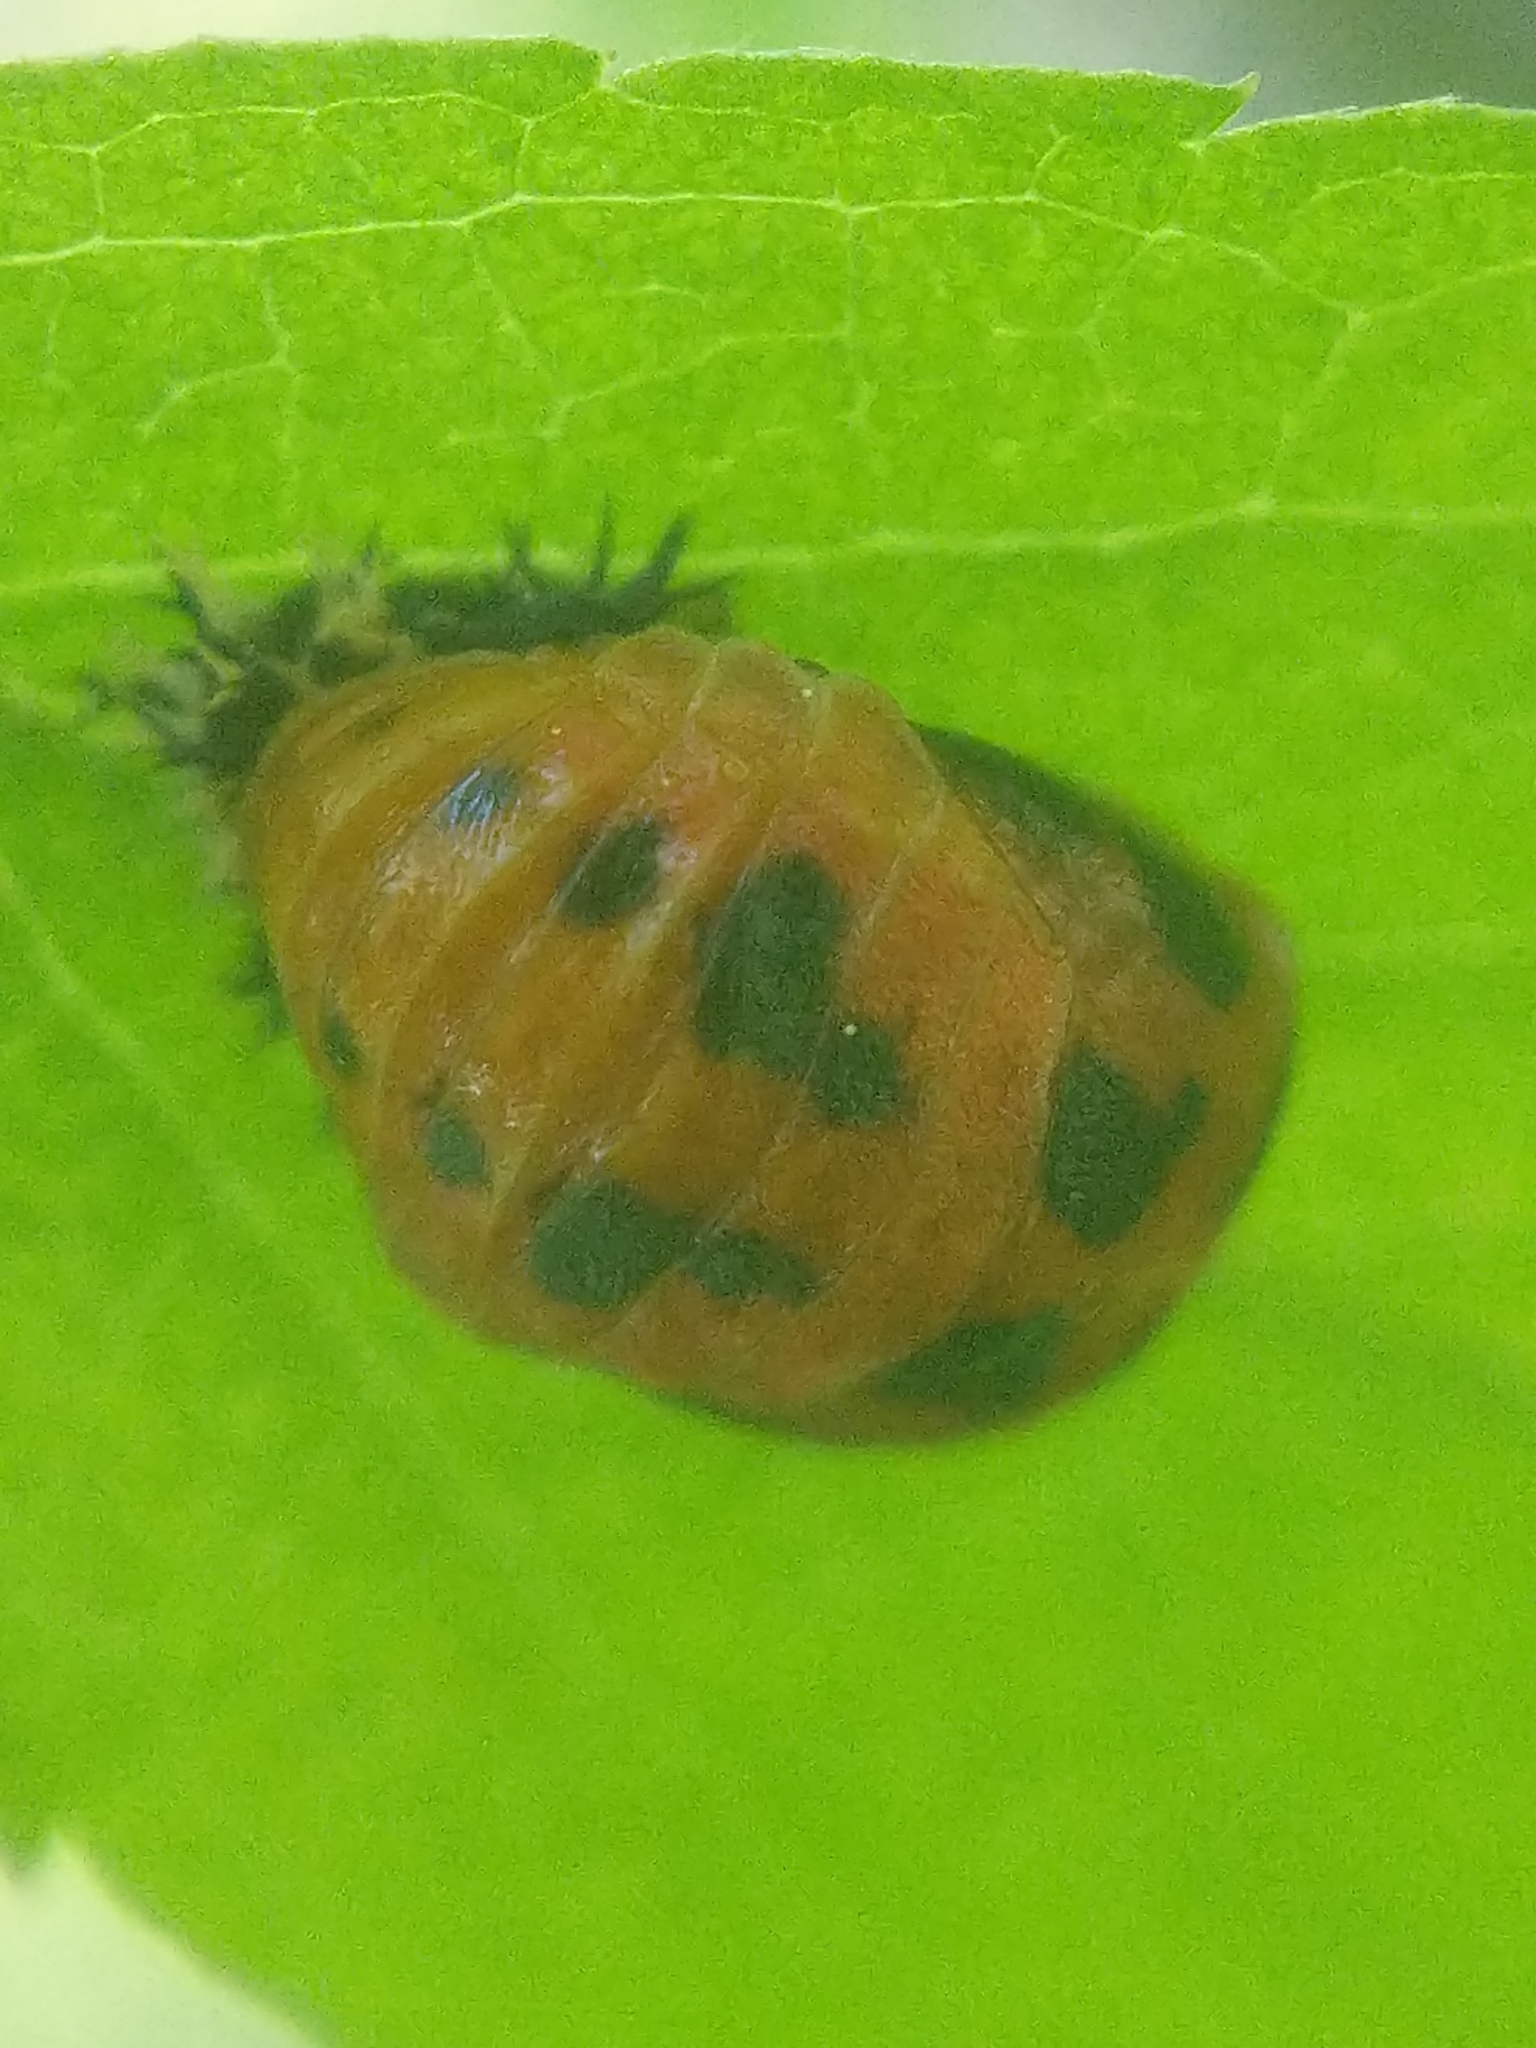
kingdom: Animalia
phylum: Arthropoda
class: Insecta
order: Coleoptera
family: Coccinellidae
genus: Harmonia
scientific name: Harmonia axyridis
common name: Harlequin ladybird
